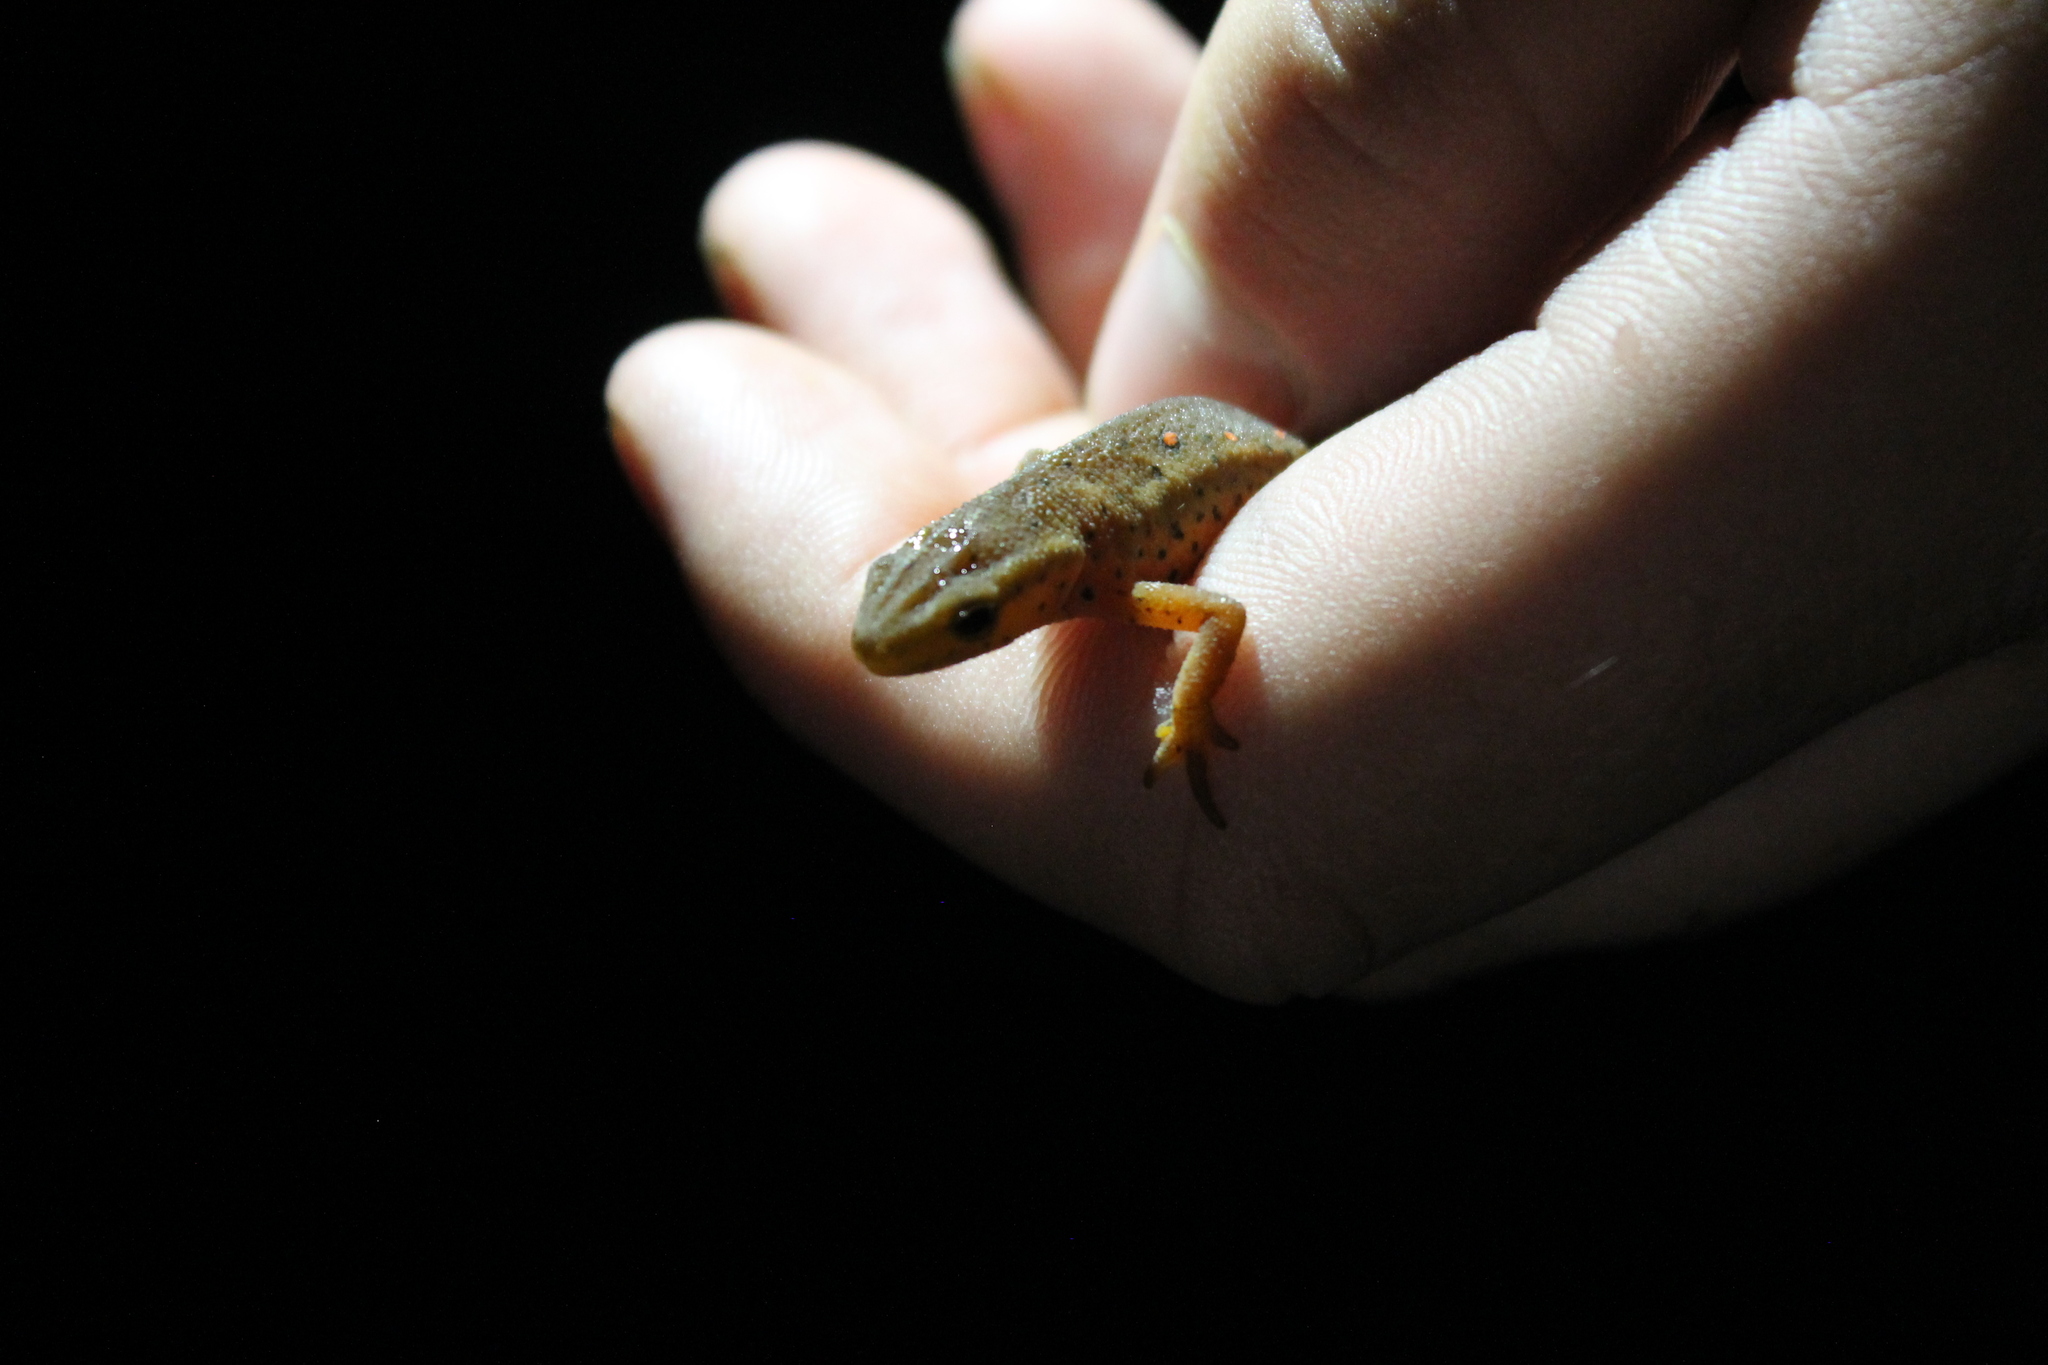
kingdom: Animalia
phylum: Chordata
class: Amphibia
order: Caudata
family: Salamandridae
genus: Notophthalmus
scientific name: Notophthalmus viridescens
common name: Eastern newt
